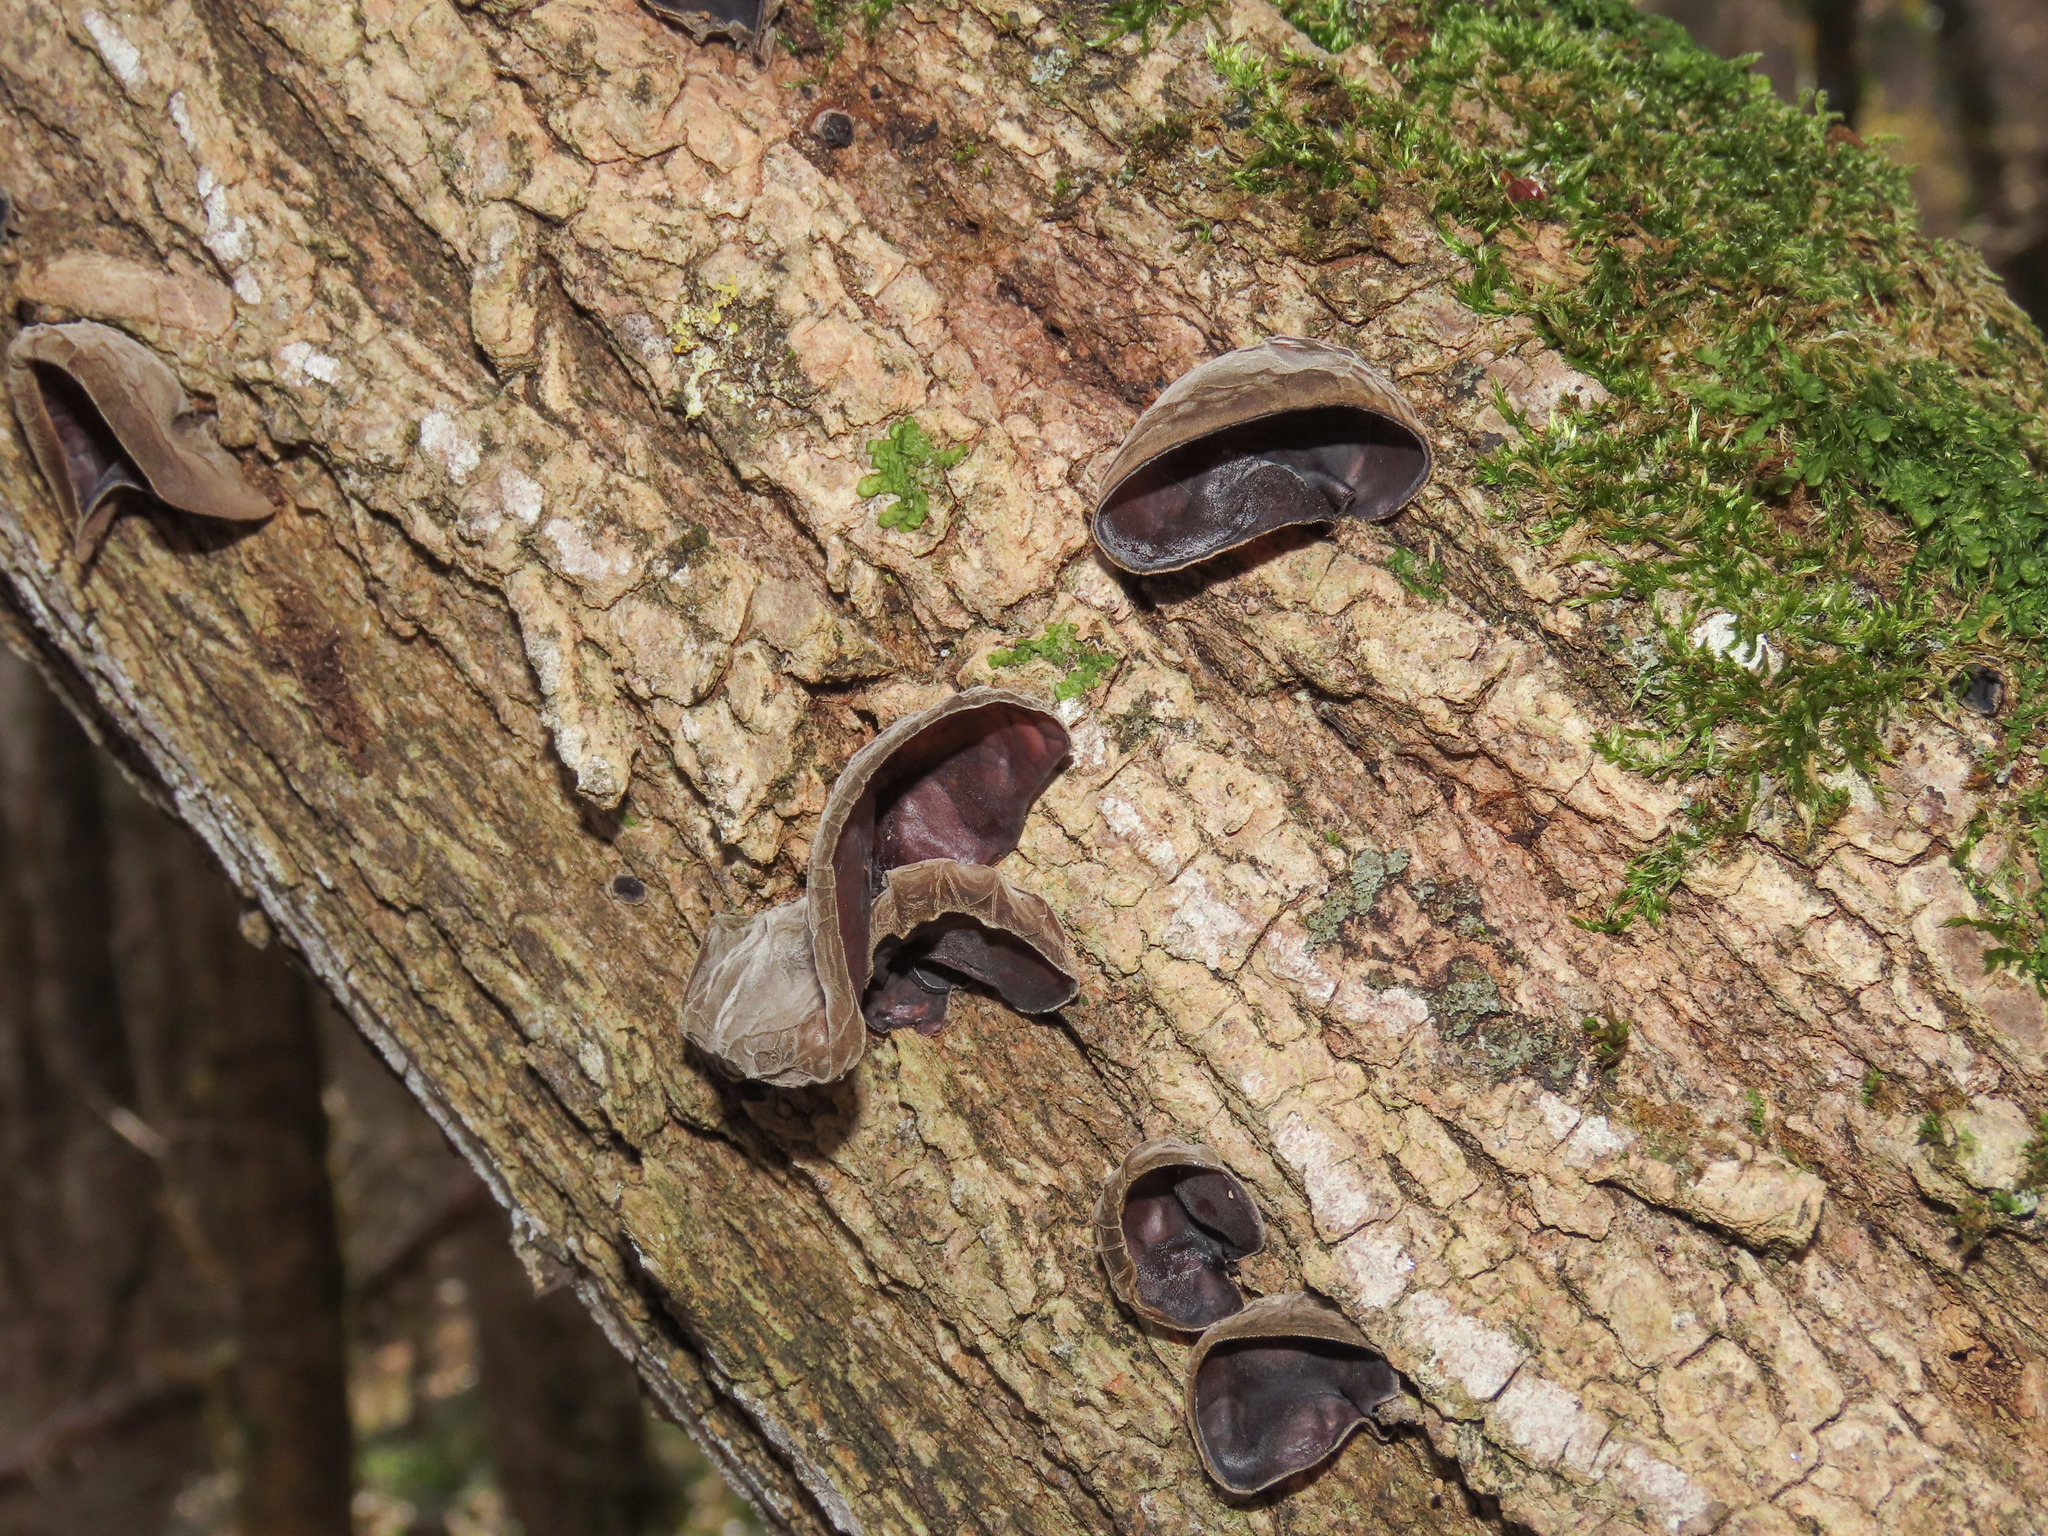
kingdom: Fungi
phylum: Basidiomycota
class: Agaricomycetes
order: Auriculariales
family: Auriculariaceae
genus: Auricularia
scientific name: Auricularia auricula-judae
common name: Jelly ear
